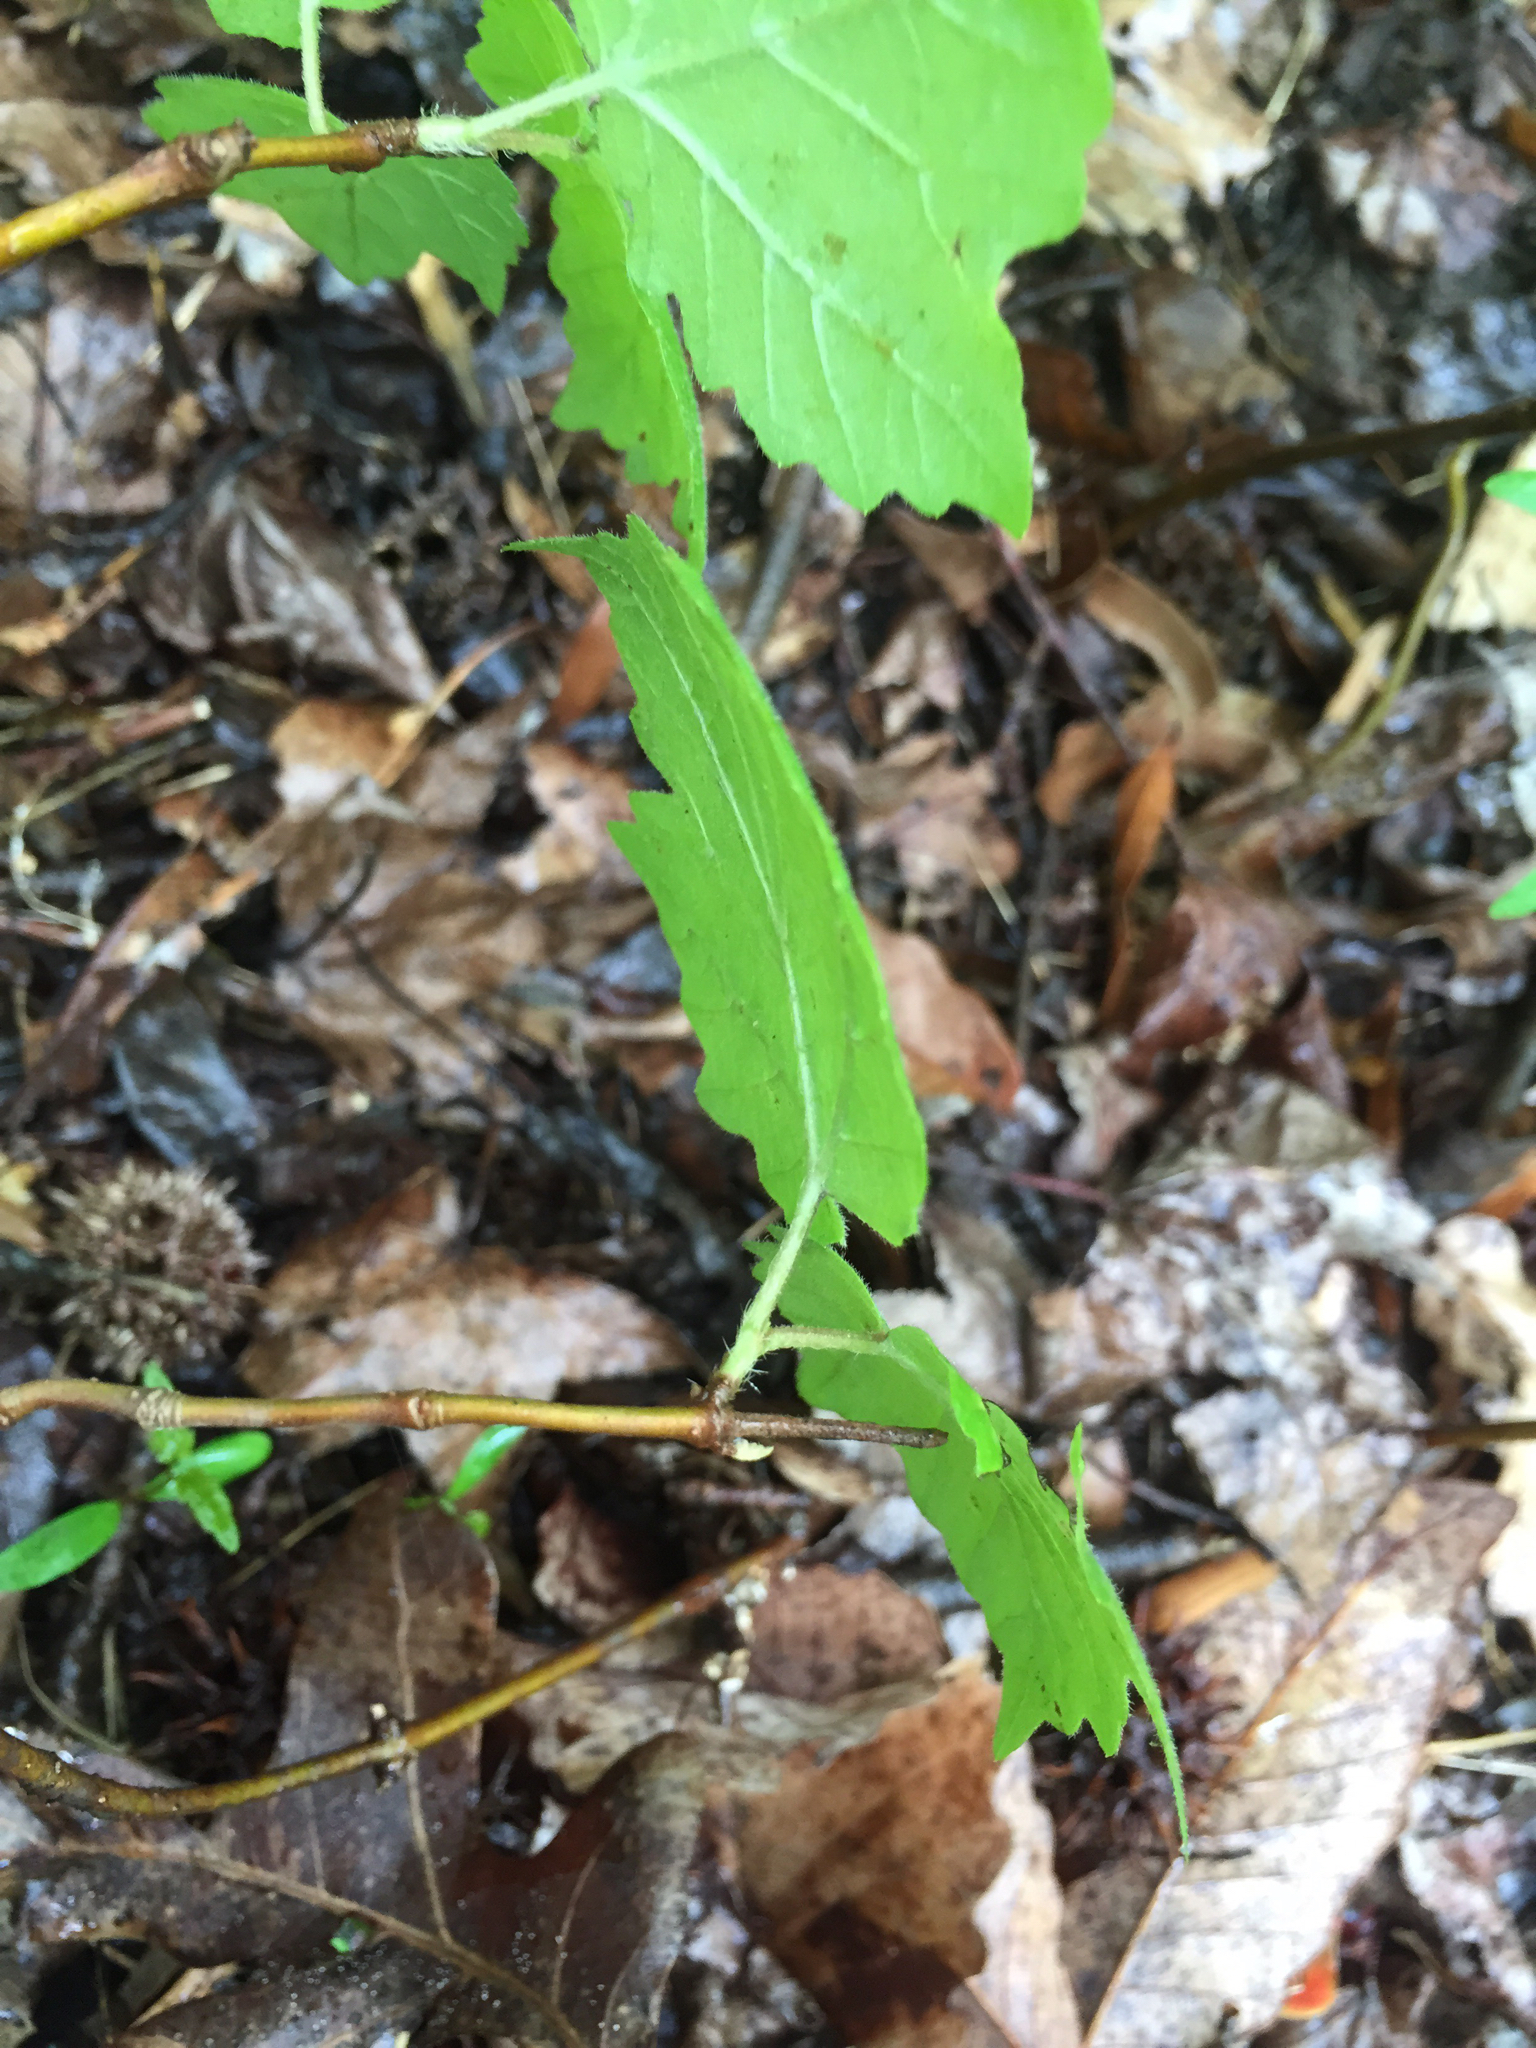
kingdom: Plantae
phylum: Tracheophyta
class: Magnoliopsida
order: Dipsacales
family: Viburnaceae
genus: Viburnum
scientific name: Viburnum acerifolium
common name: Dockmackie
